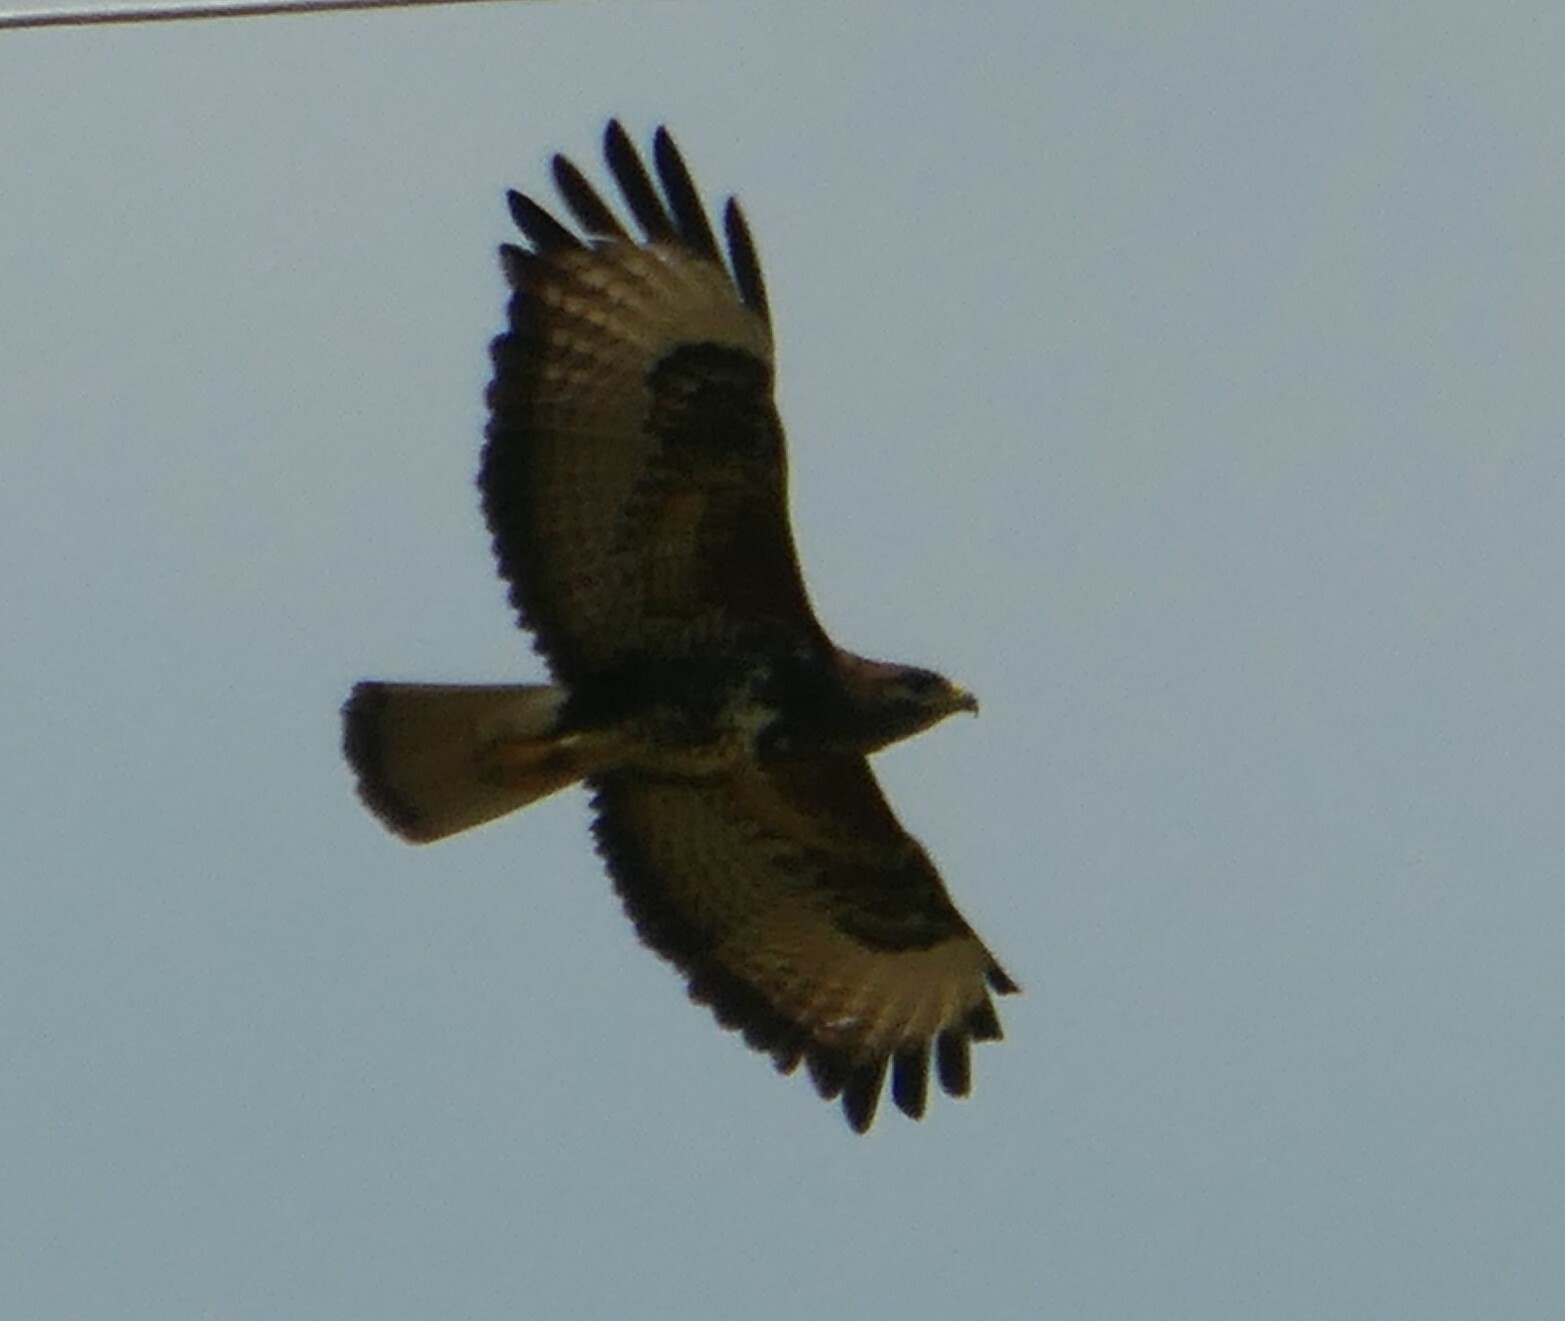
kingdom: Animalia
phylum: Chordata
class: Aves
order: Accipitriformes
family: Accipitridae
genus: Buteo
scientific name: Buteo buteo
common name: Common buzzard
